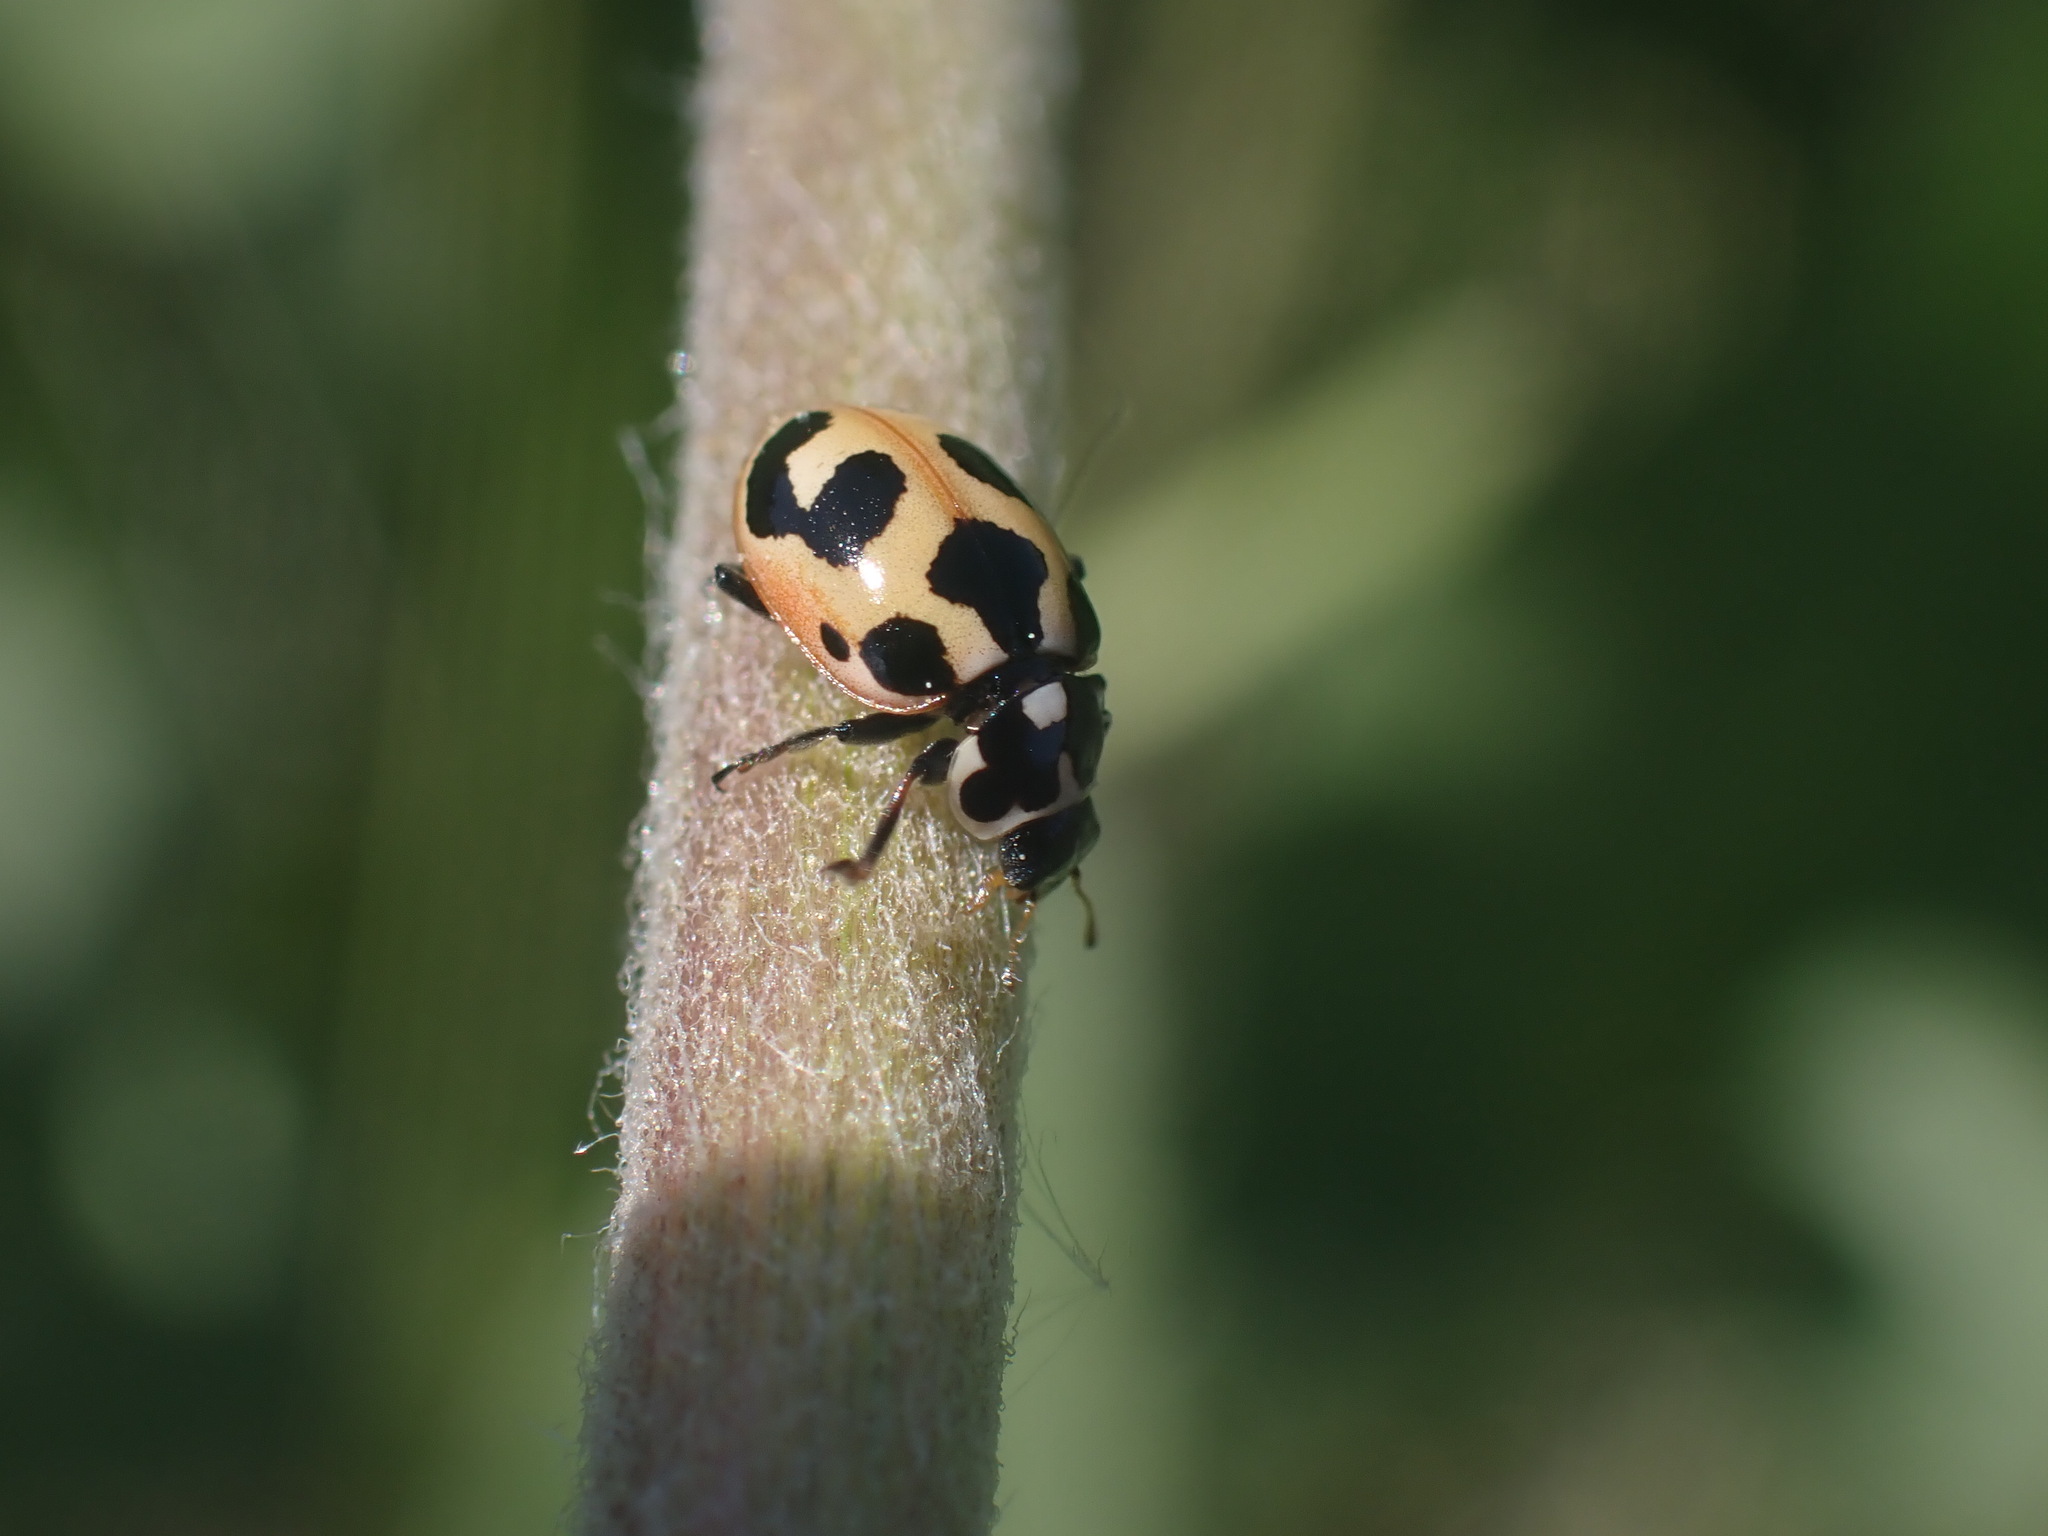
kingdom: Animalia
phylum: Arthropoda
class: Insecta
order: Coleoptera
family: Coccinellidae
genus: Hippodamia
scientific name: Hippodamia parenthesis
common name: Parenthesis lady beetle
